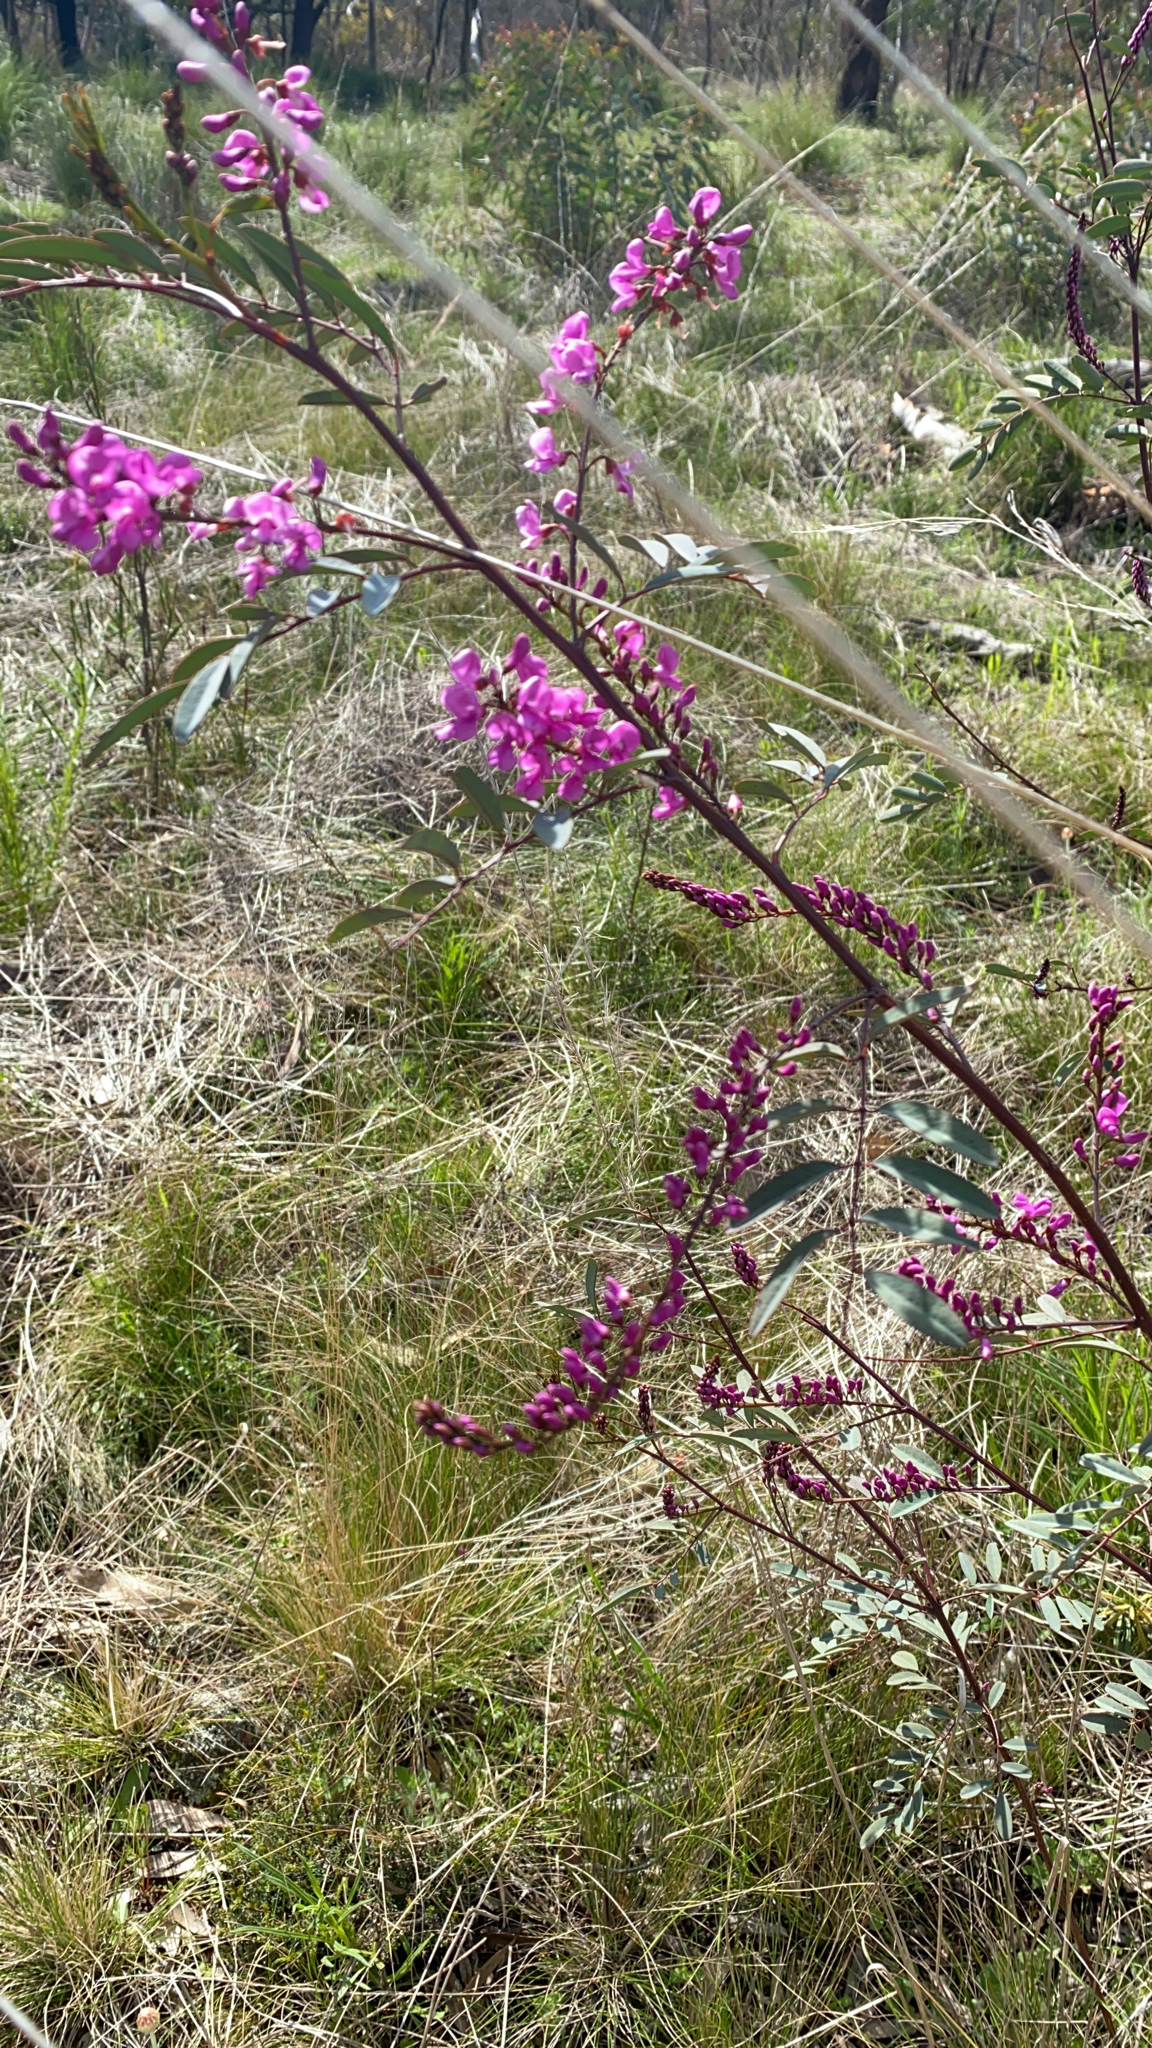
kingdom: Plantae
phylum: Tracheophyta
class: Magnoliopsida
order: Fabales
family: Fabaceae
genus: Indigofera
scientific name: Indigofera australis
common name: Australian indigo
